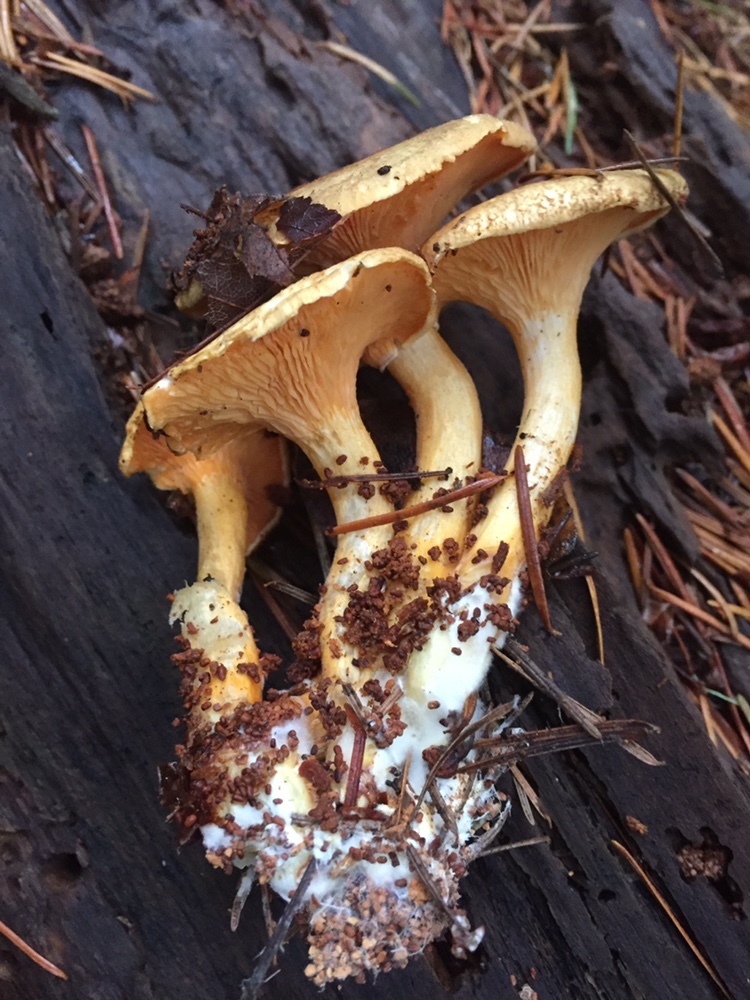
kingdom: Fungi
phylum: Basidiomycota
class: Agaricomycetes
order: Boletales
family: Hygrophoropsidaceae
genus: Hygrophoropsis
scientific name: Hygrophoropsis aurantiaca
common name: False chanterelle
